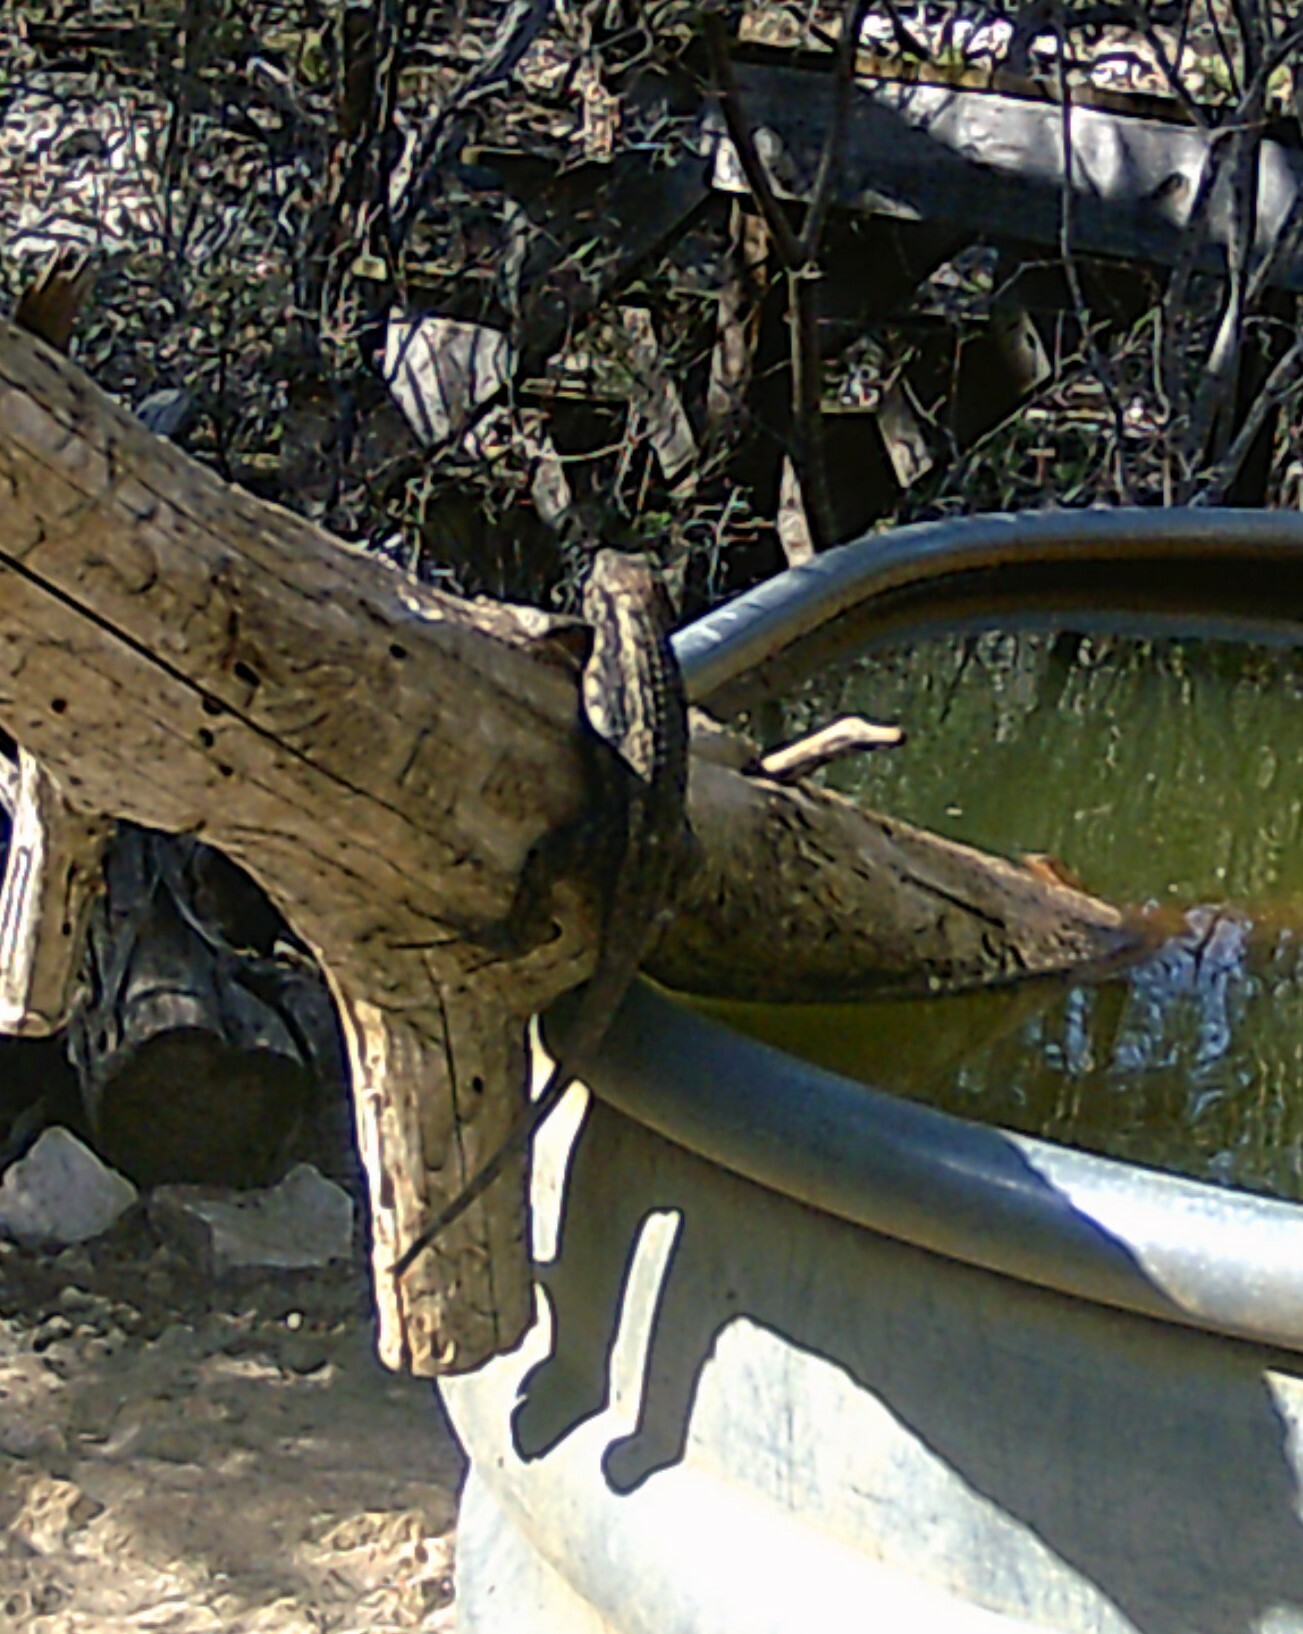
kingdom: Animalia
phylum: Chordata
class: Squamata
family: Phrynosomatidae
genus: Sceloporus
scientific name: Sceloporus olivaceus
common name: Texas spiny lizard
